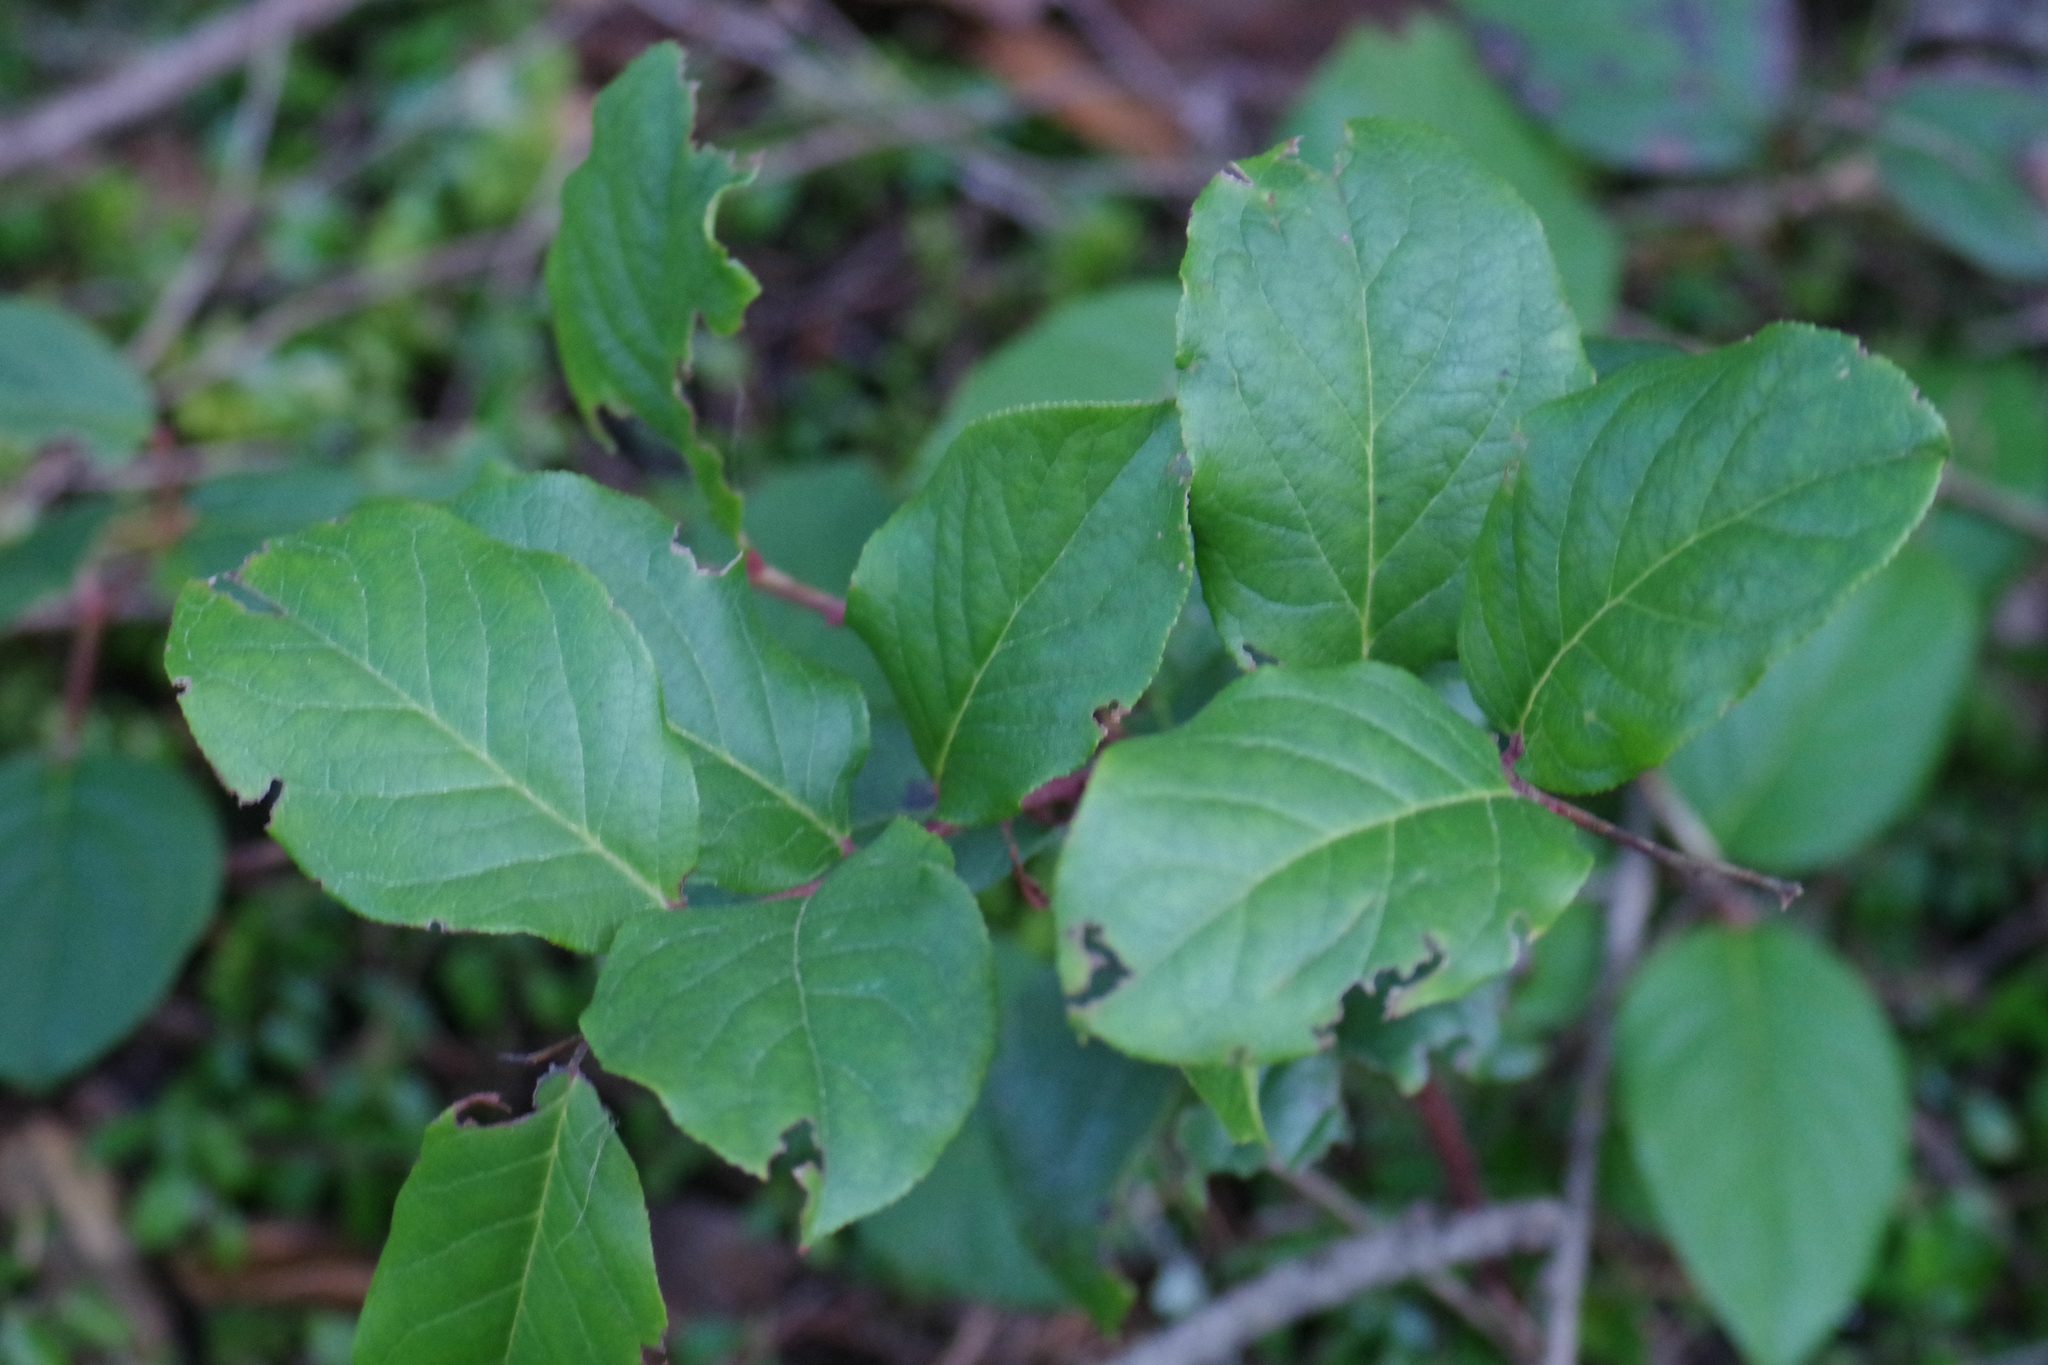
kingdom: Plantae
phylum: Tracheophyta
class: Magnoliopsida
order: Ericales
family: Ericaceae
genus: Gaultheria
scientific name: Gaultheria shallon
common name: Shallon
